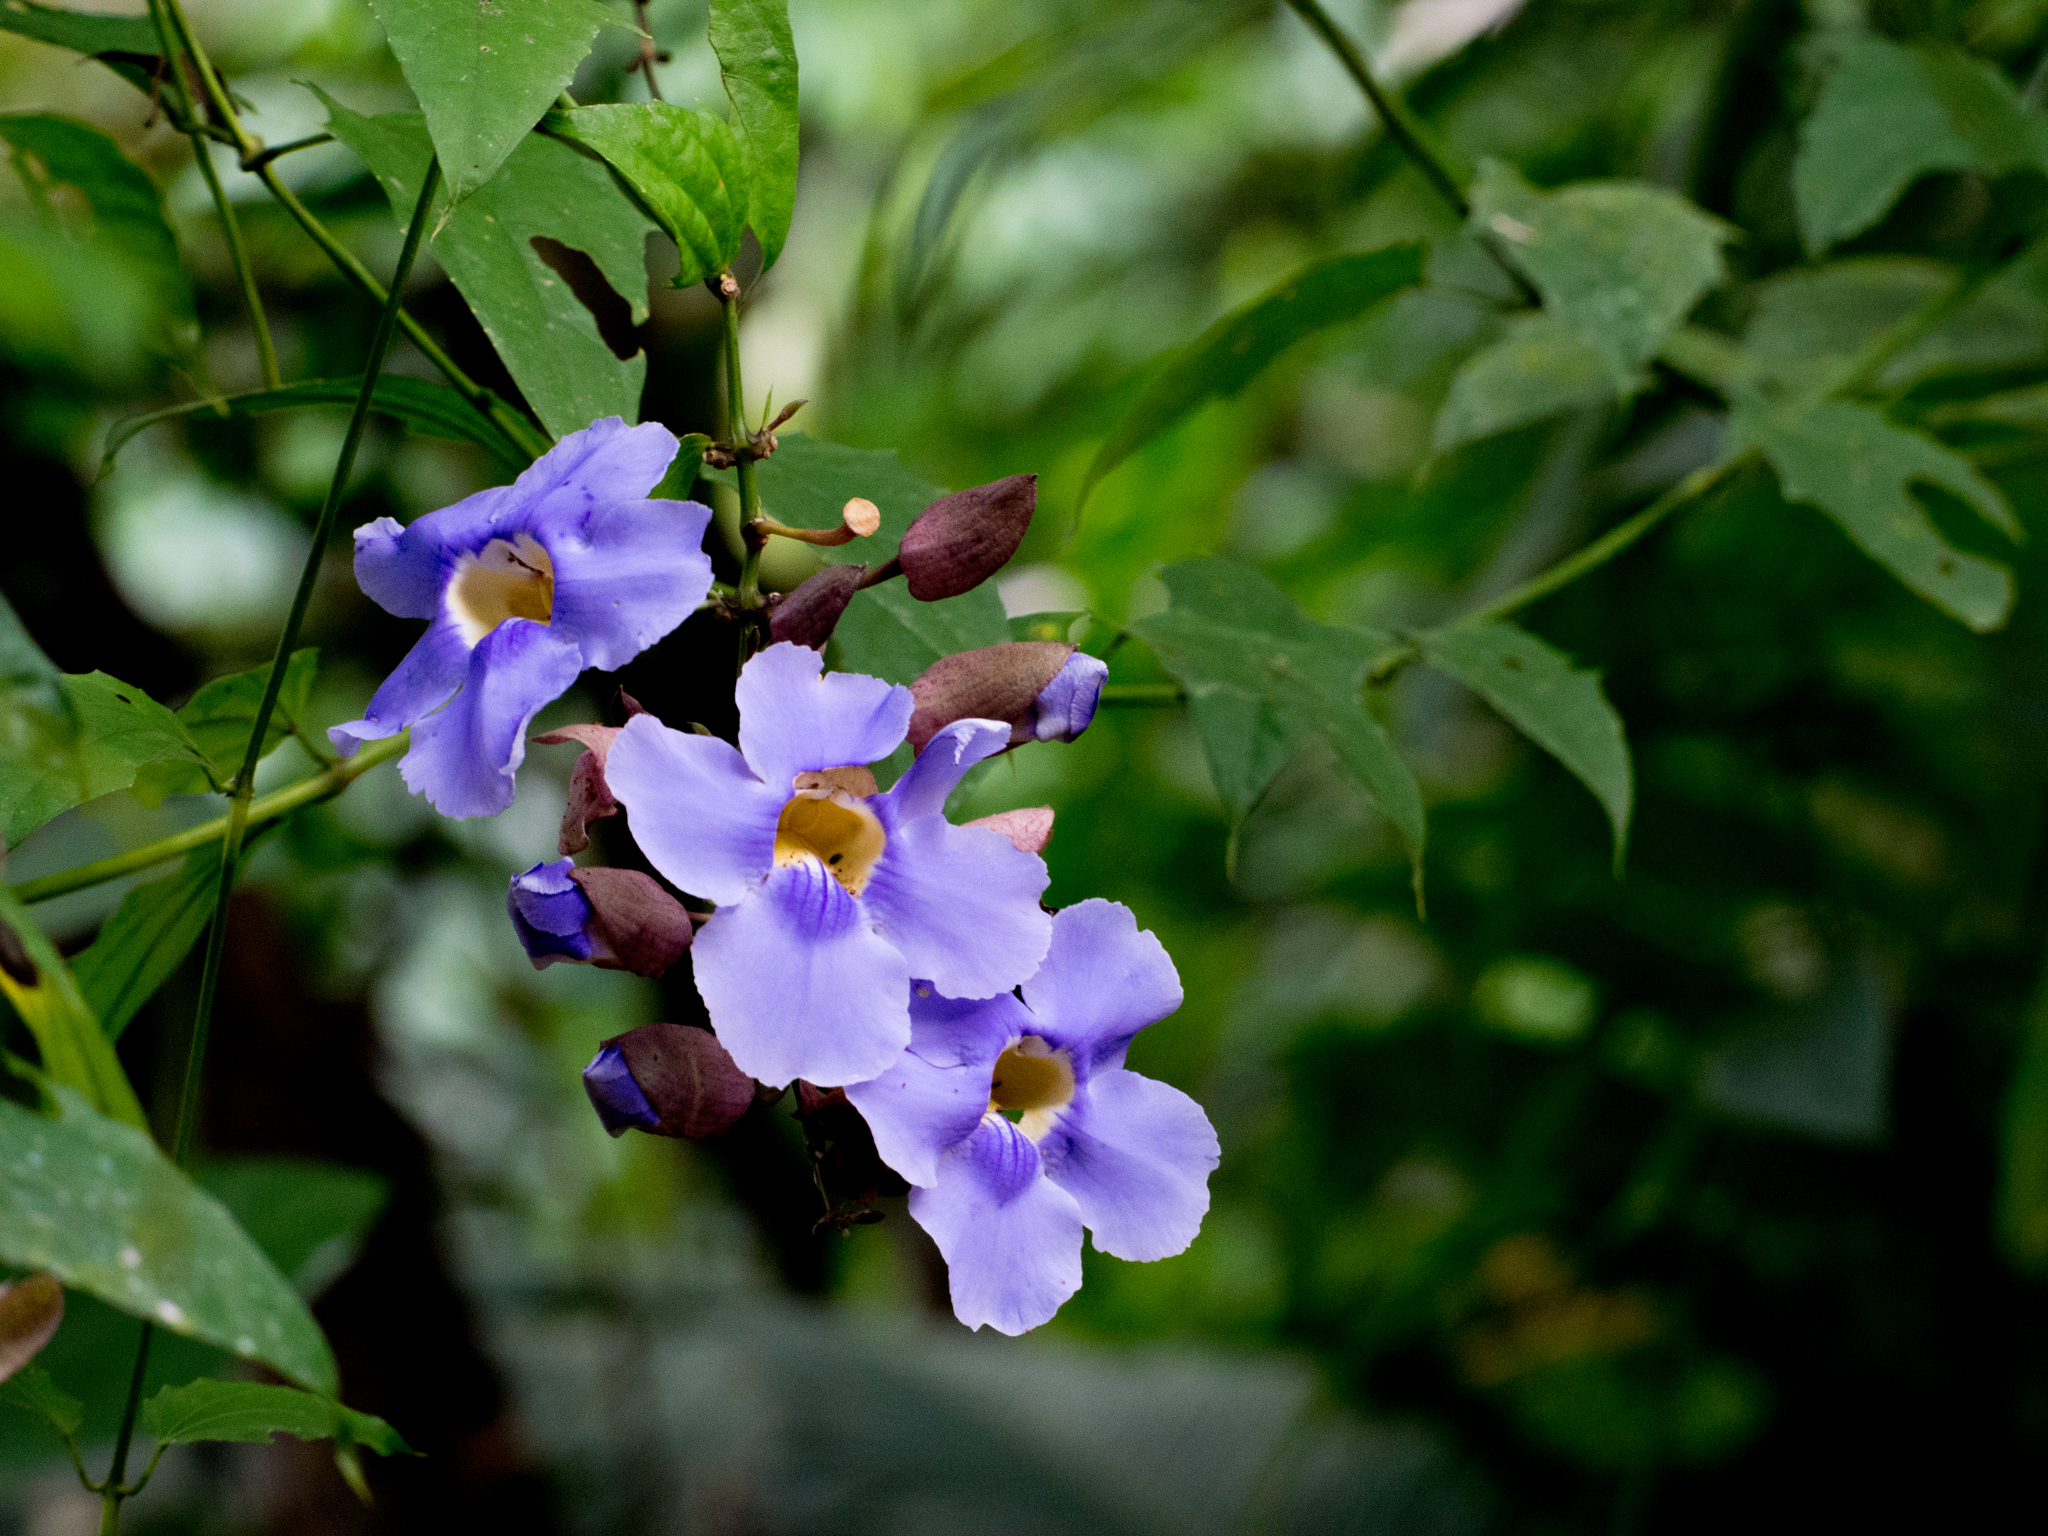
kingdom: Plantae
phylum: Tracheophyta
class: Magnoliopsida
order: Lamiales
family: Acanthaceae
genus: Thunbergia
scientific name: Thunbergia grandiflora
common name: Bengal trumpet
